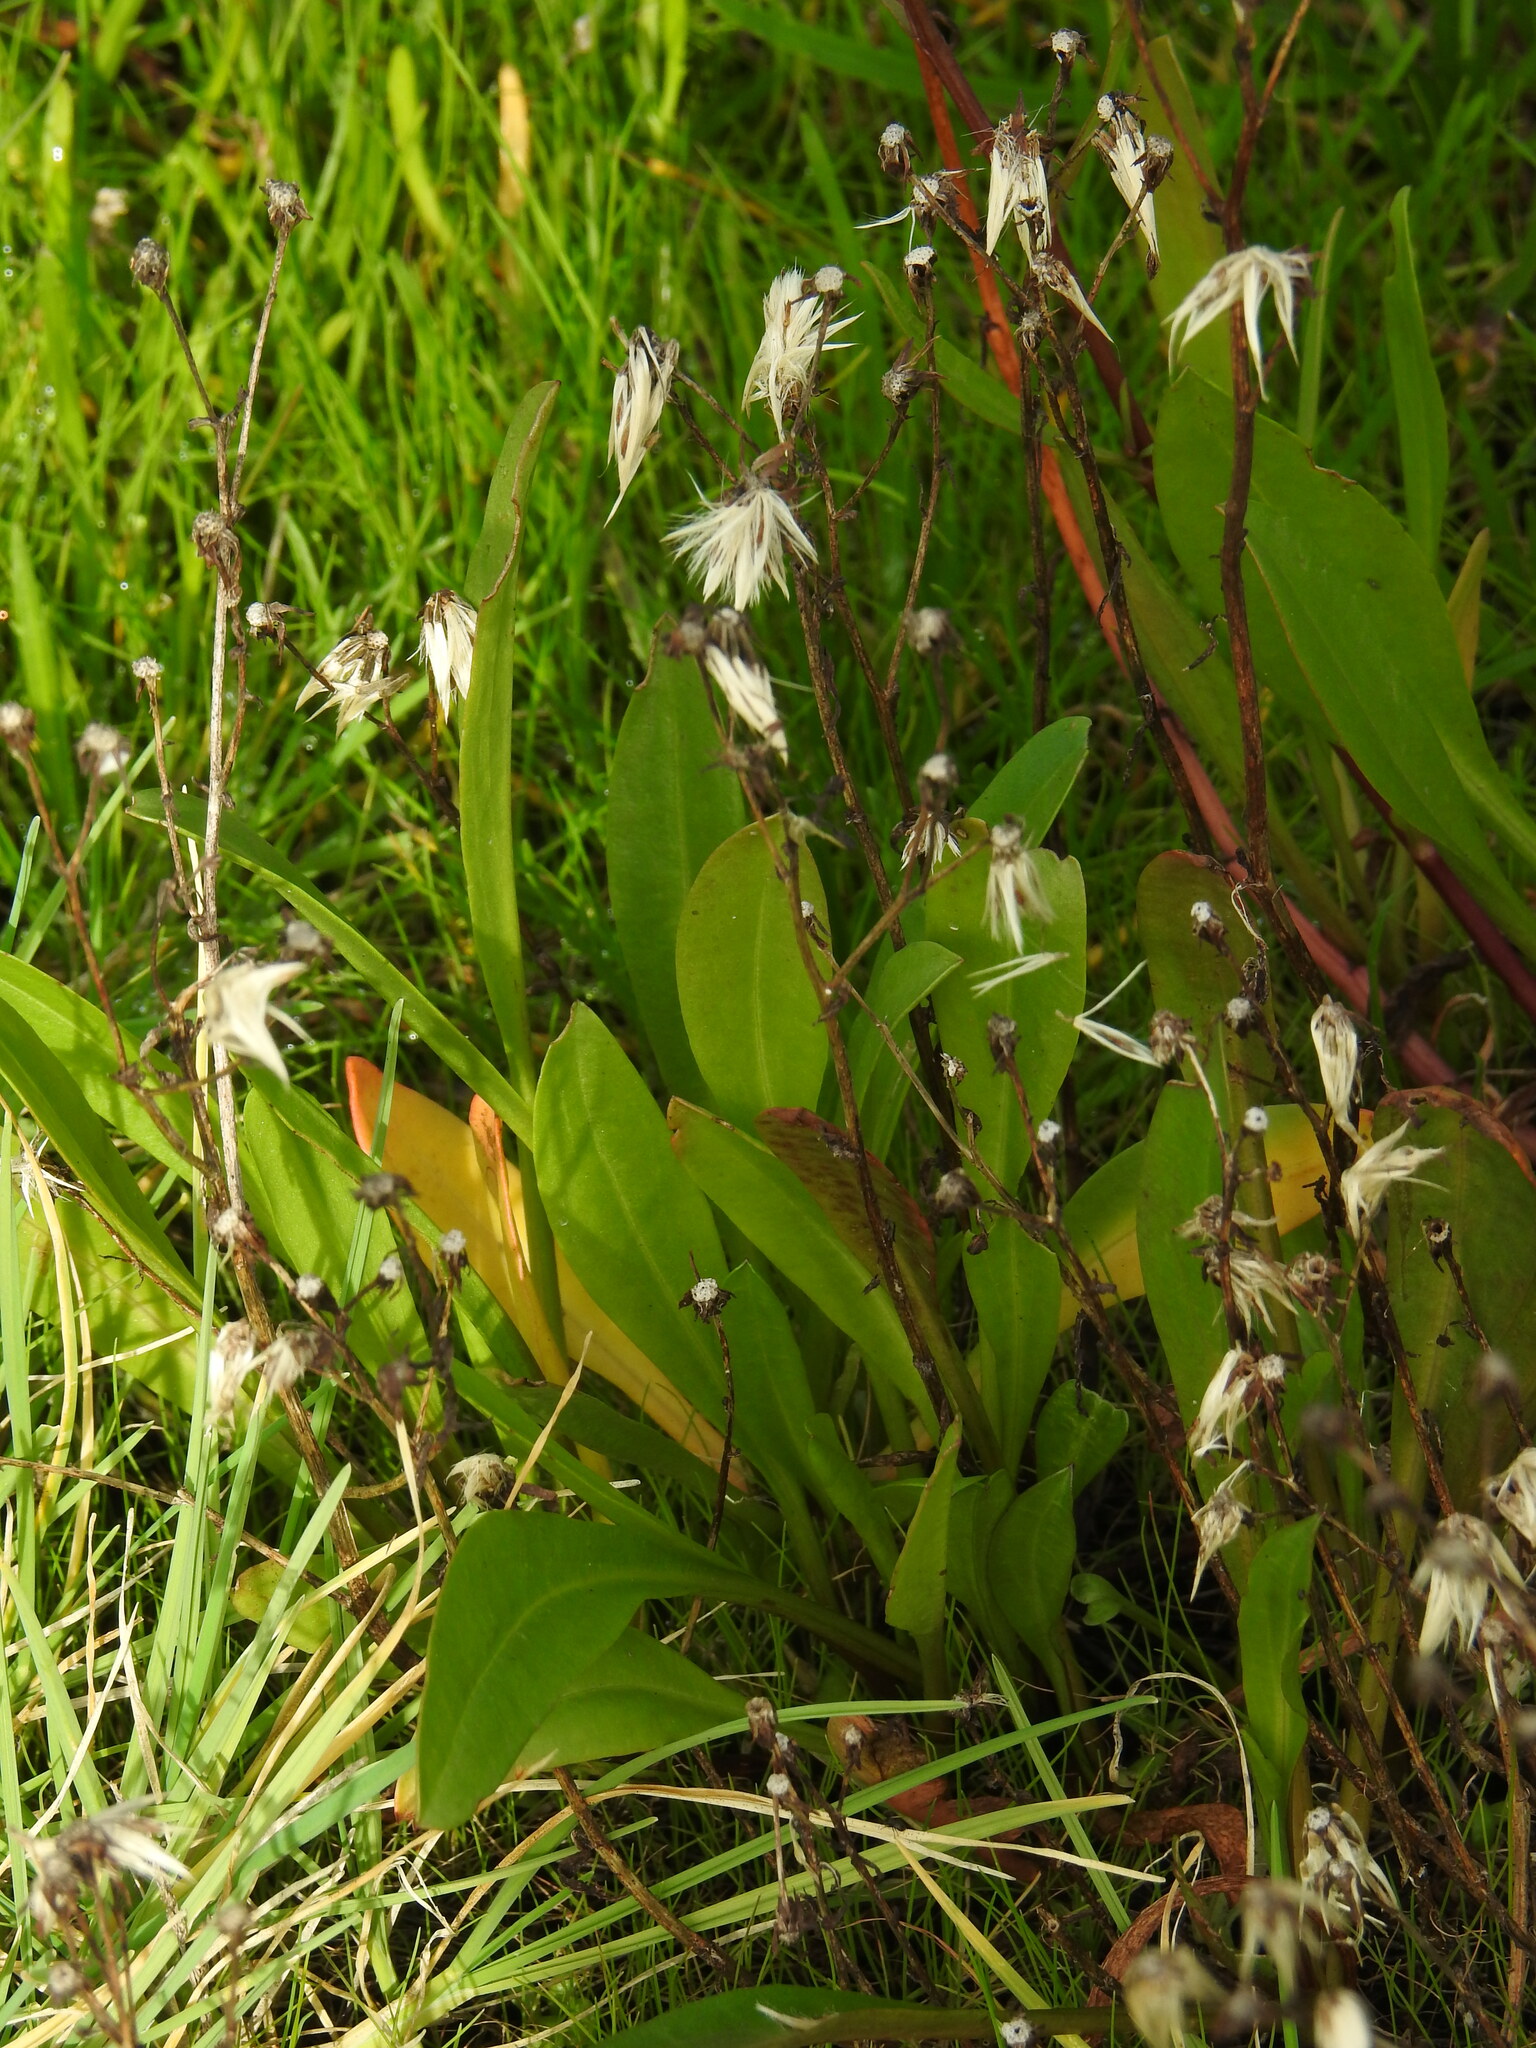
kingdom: Plantae
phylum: Tracheophyta
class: Magnoliopsida
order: Asterales
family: Asteraceae
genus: Tripolium
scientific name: Tripolium pannonicum
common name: Sea aster
